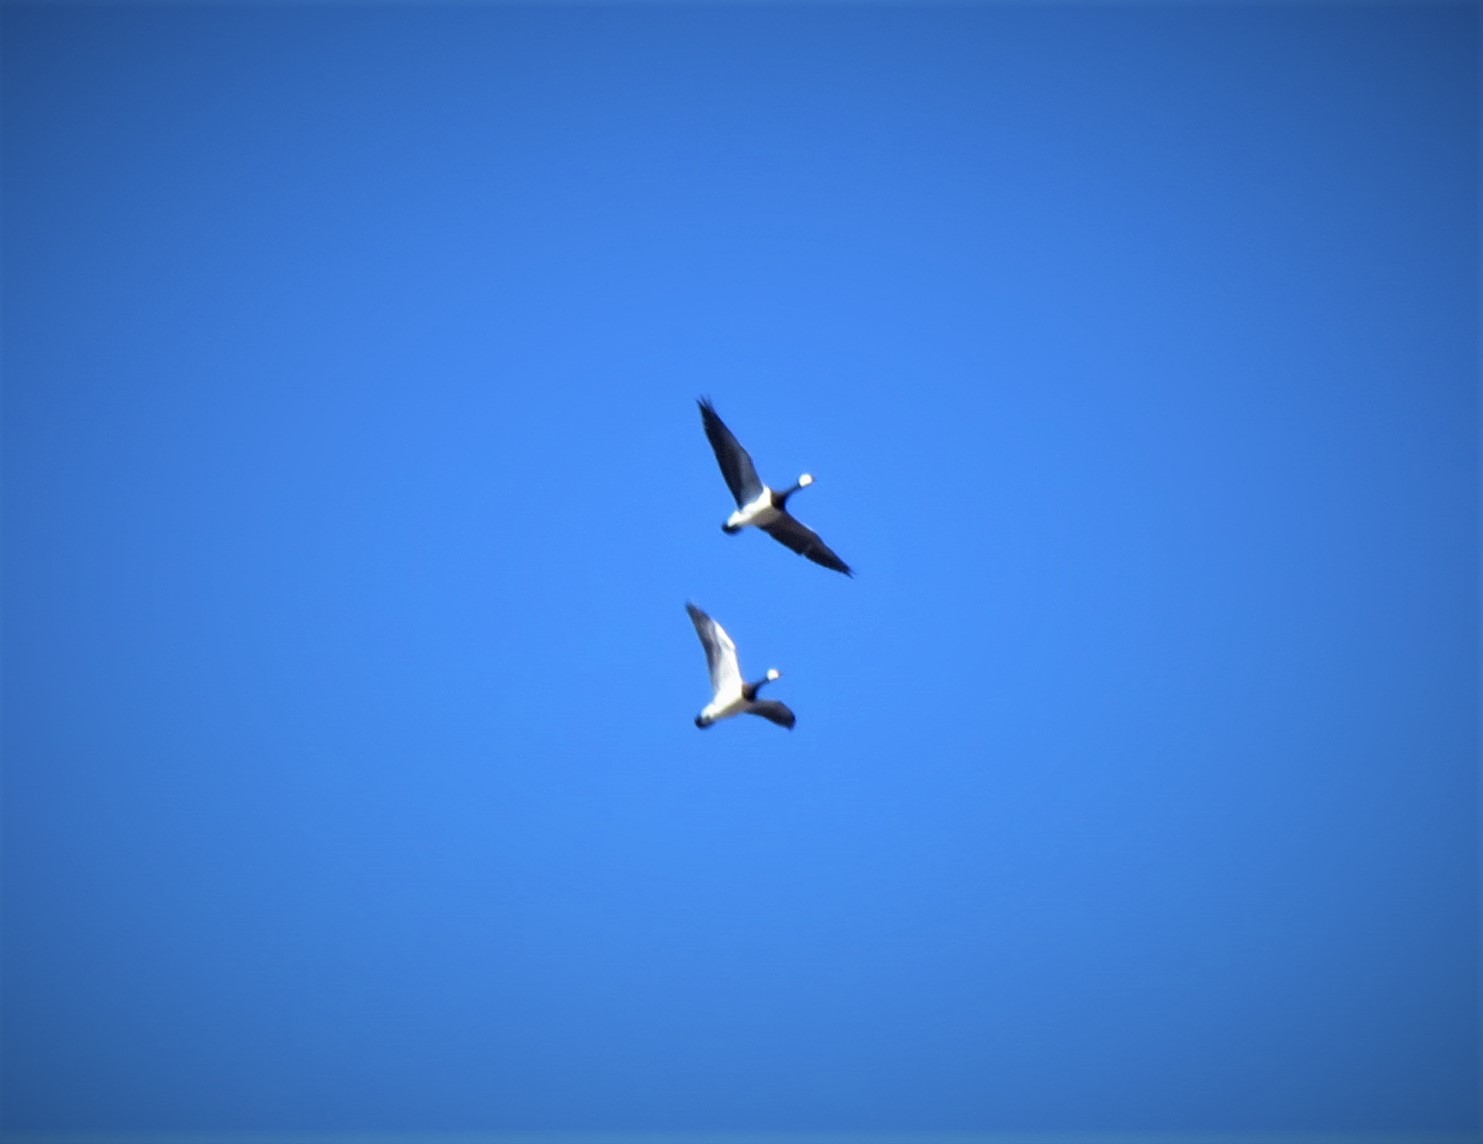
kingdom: Animalia
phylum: Chordata
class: Aves
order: Anseriformes
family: Anatidae
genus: Branta
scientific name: Branta leucopsis
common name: Barnacle goose
